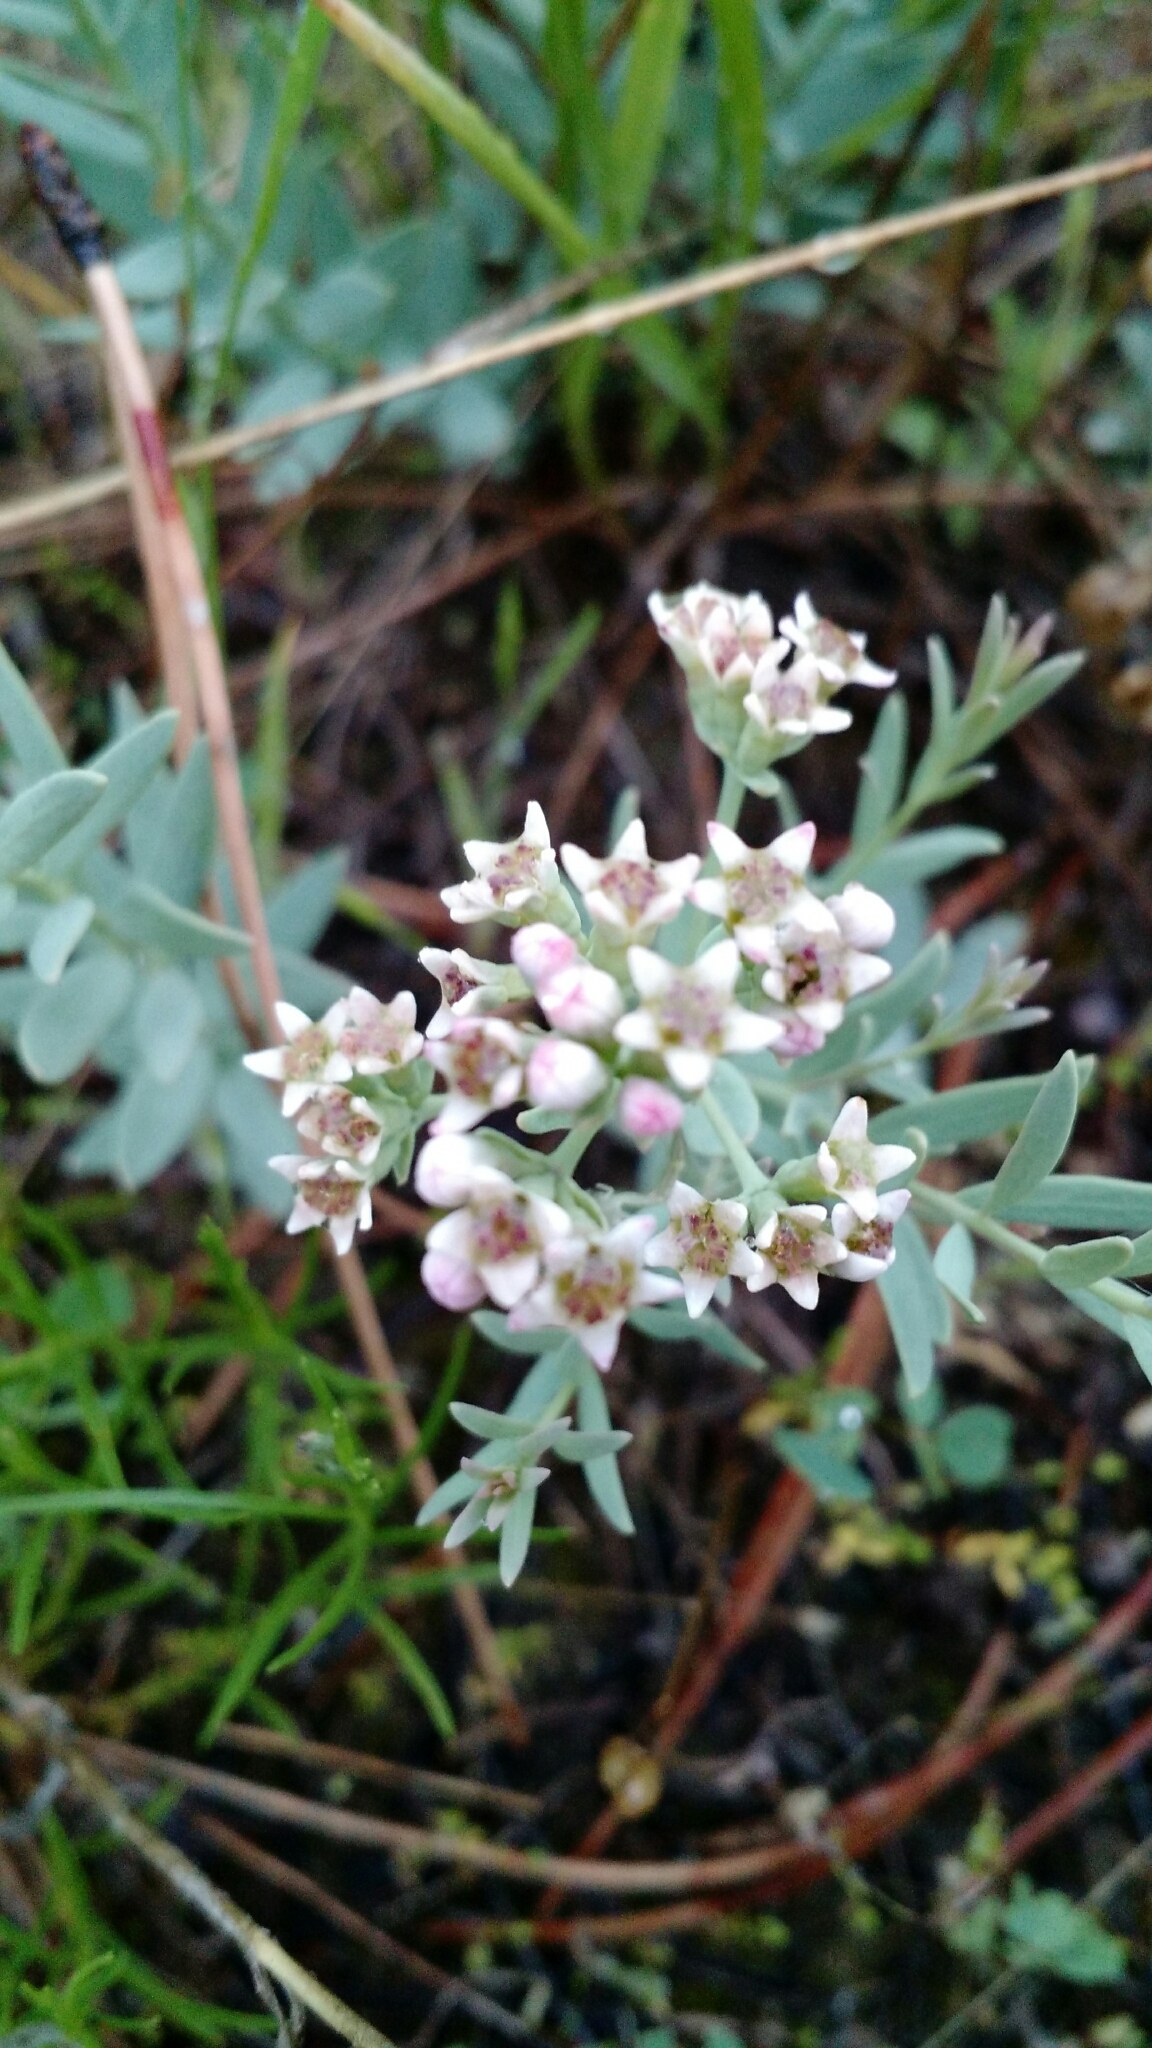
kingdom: Plantae
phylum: Tracheophyta
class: Magnoliopsida
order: Santalales
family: Comandraceae
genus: Comandra
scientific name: Comandra umbellata
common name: Bastard toadflax
